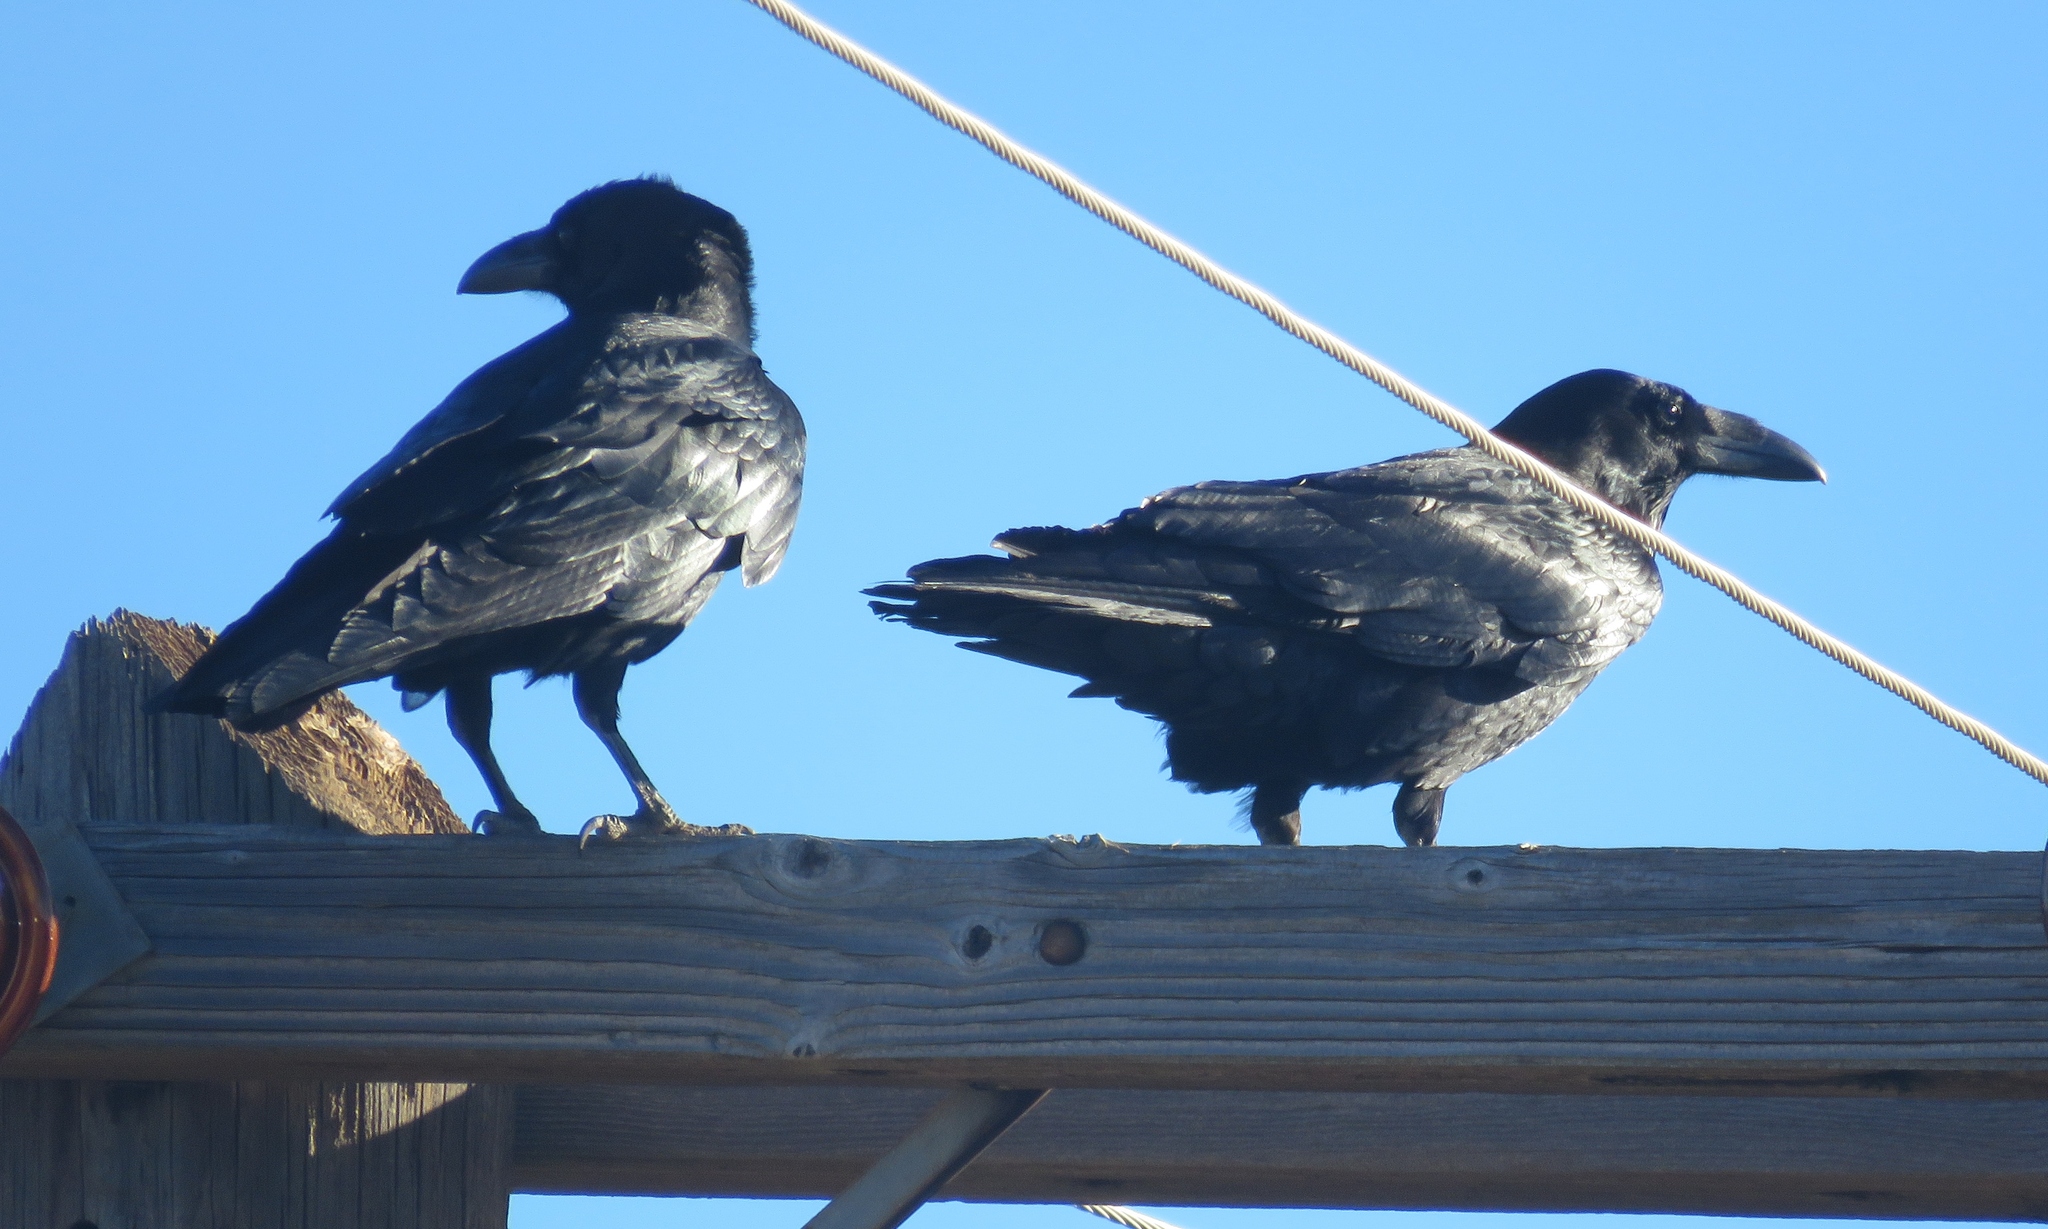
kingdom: Animalia
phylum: Chordata
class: Aves
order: Passeriformes
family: Corvidae
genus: Corvus
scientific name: Corvus corax
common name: Common raven
